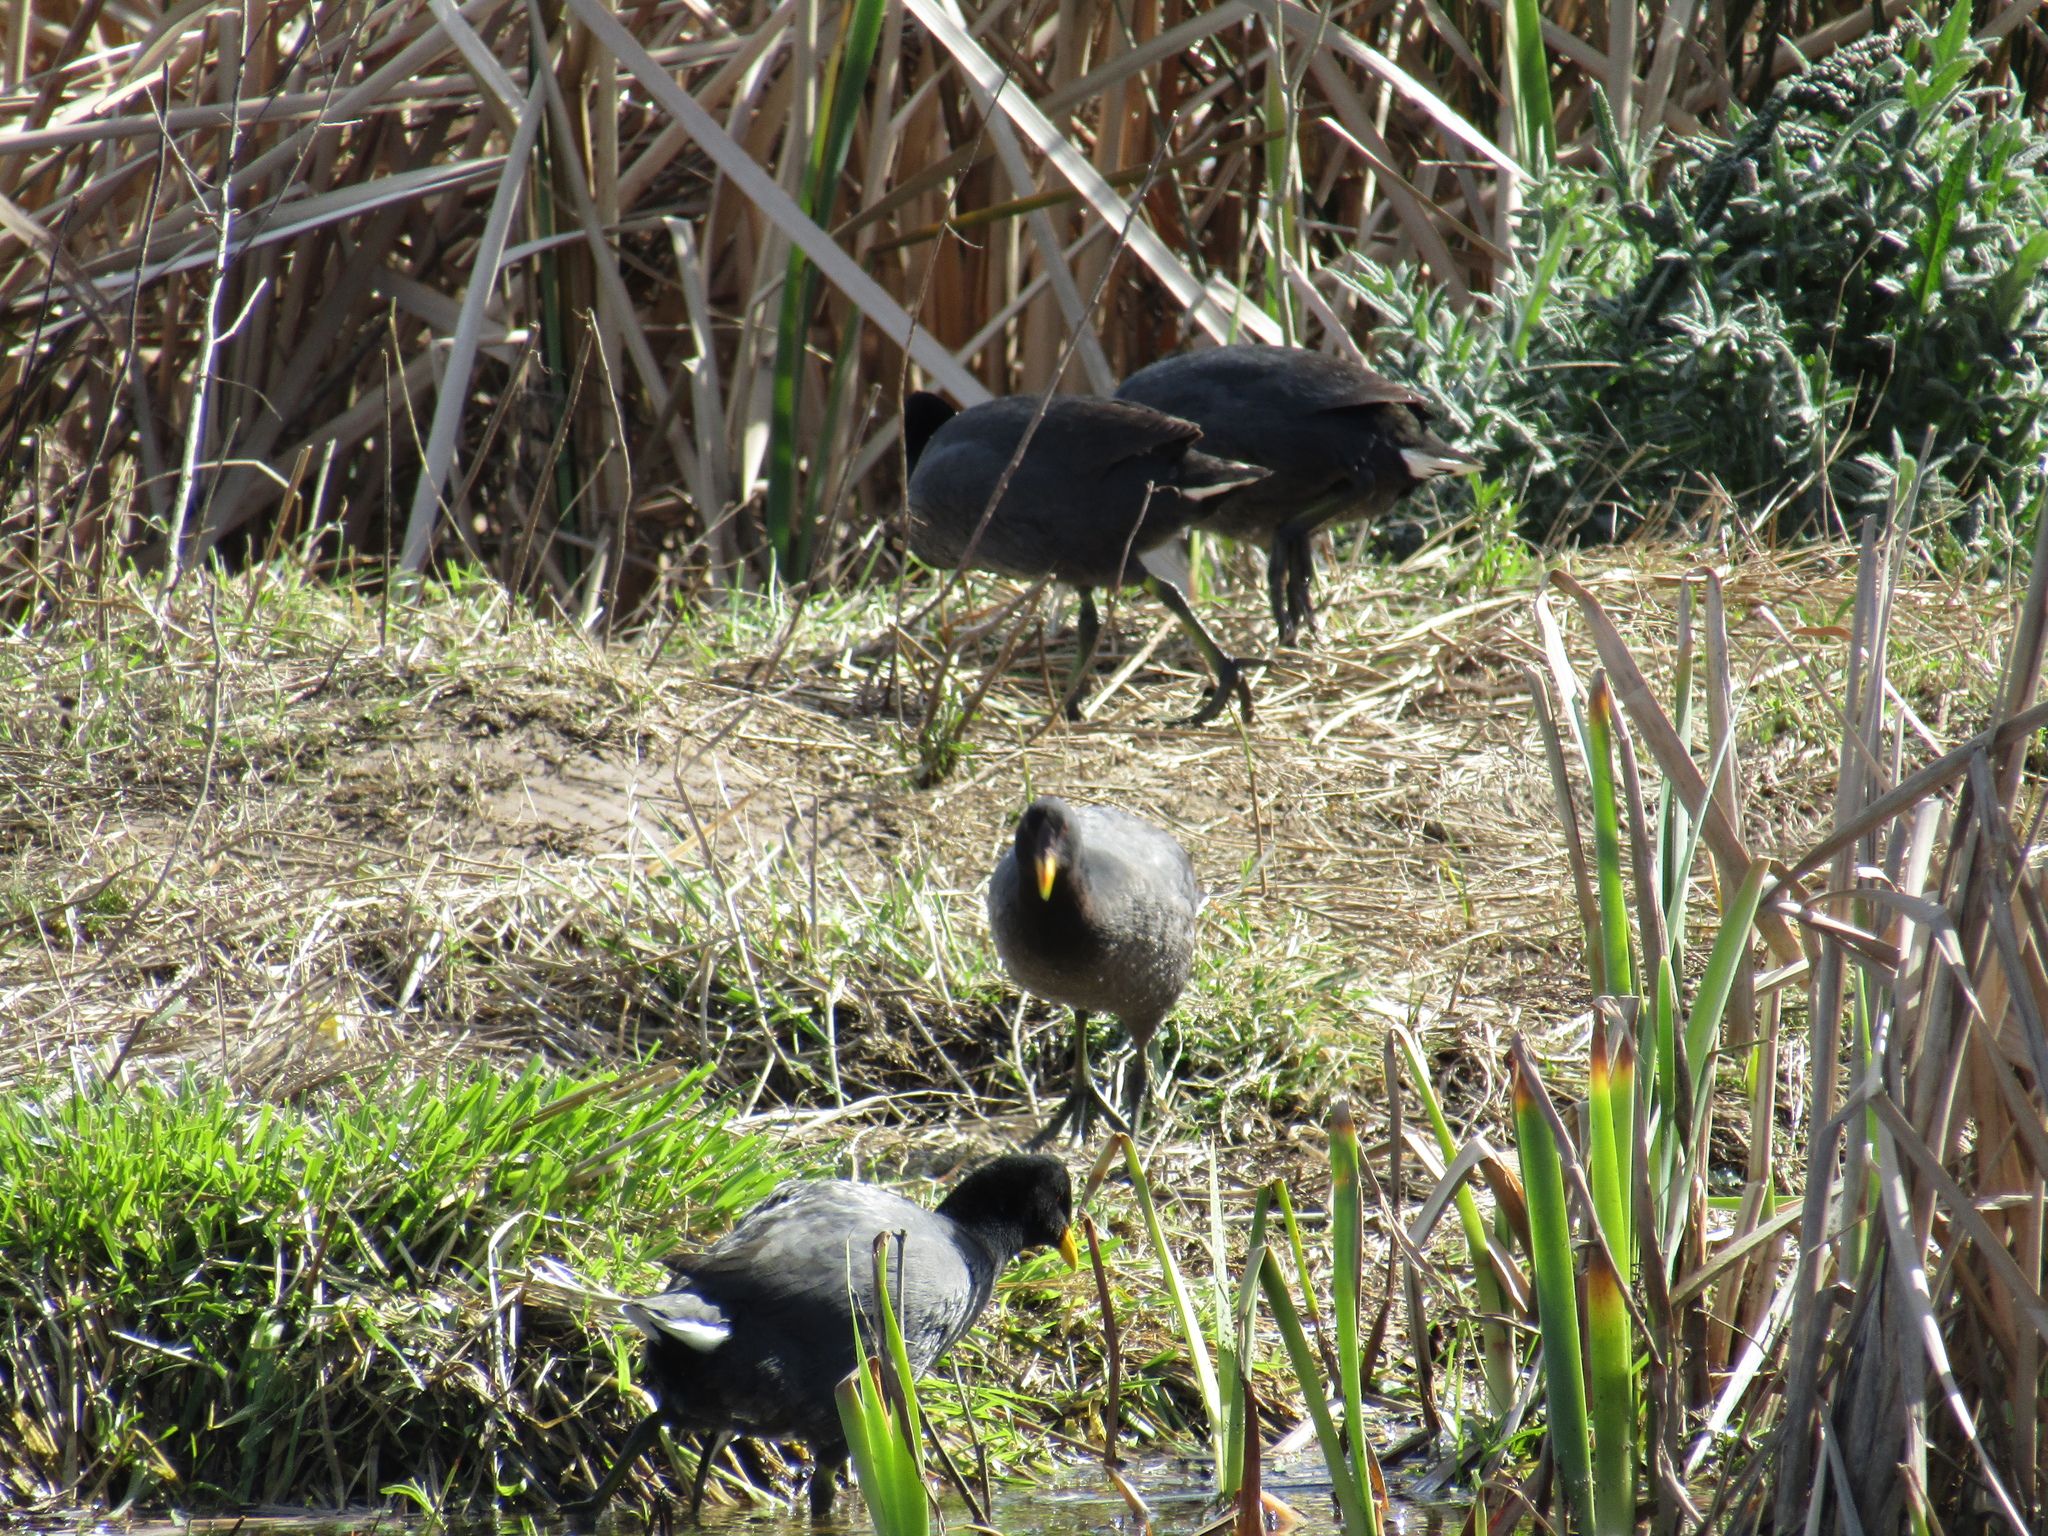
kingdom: Animalia
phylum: Chordata
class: Aves
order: Gruiformes
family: Rallidae
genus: Fulica
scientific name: Fulica rufifrons
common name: Red-fronted coot
